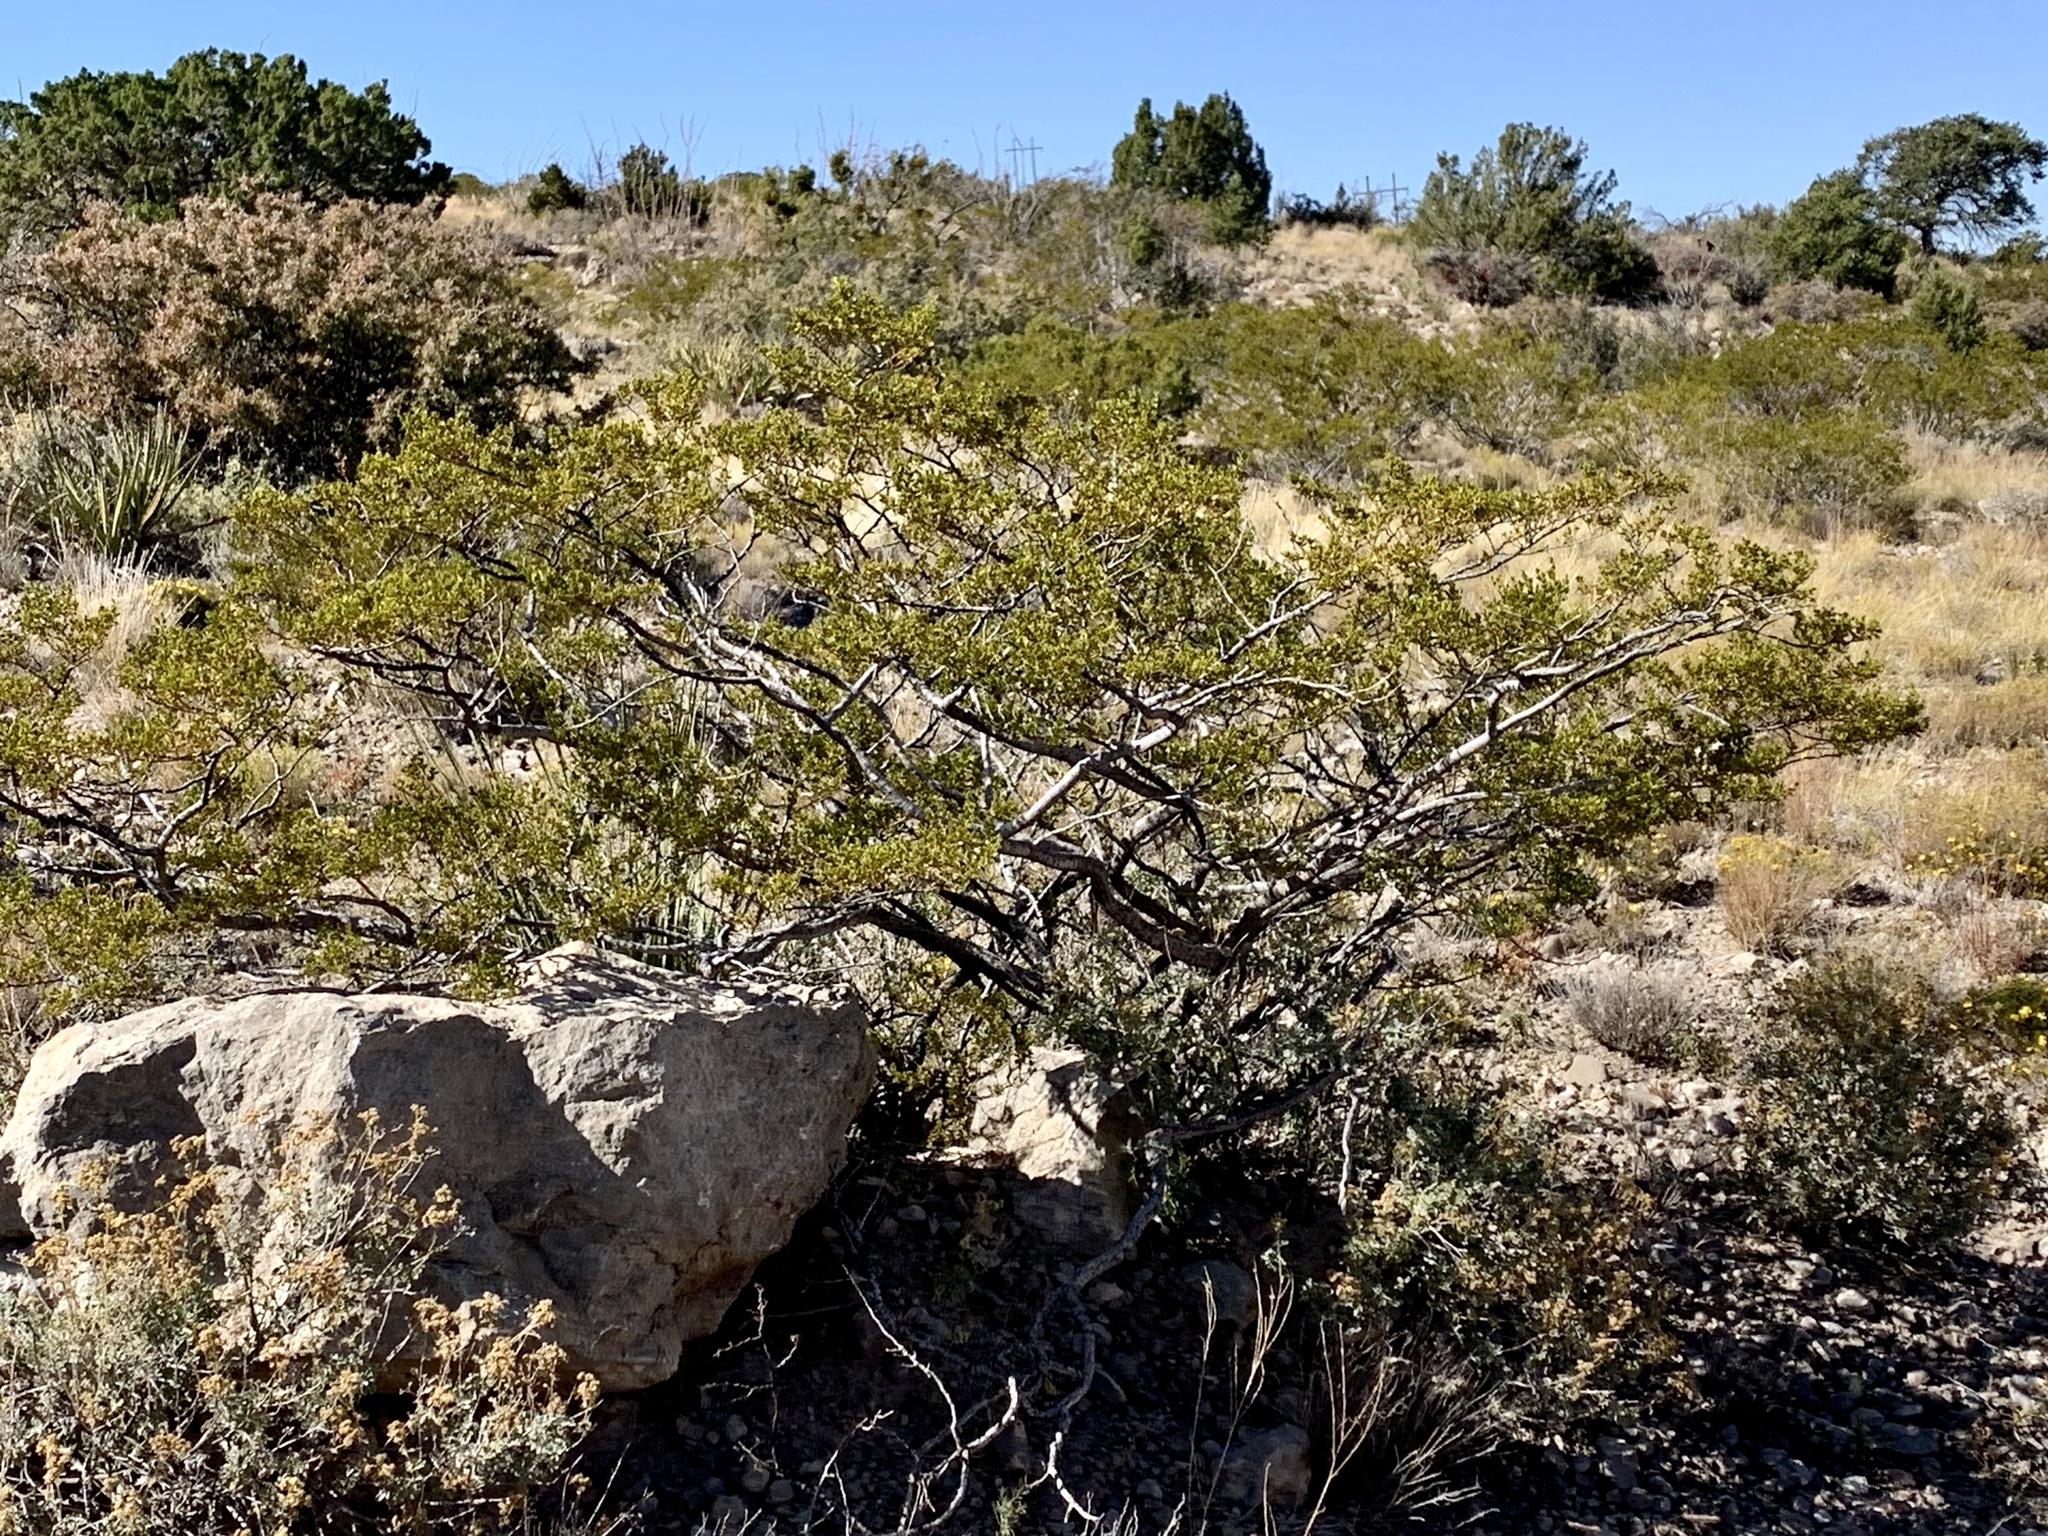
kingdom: Plantae
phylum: Tracheophyta
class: Magnoliopsida
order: Zygophyllales
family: Zygophyllaceae
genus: Larrea
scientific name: Larrea tridentata
